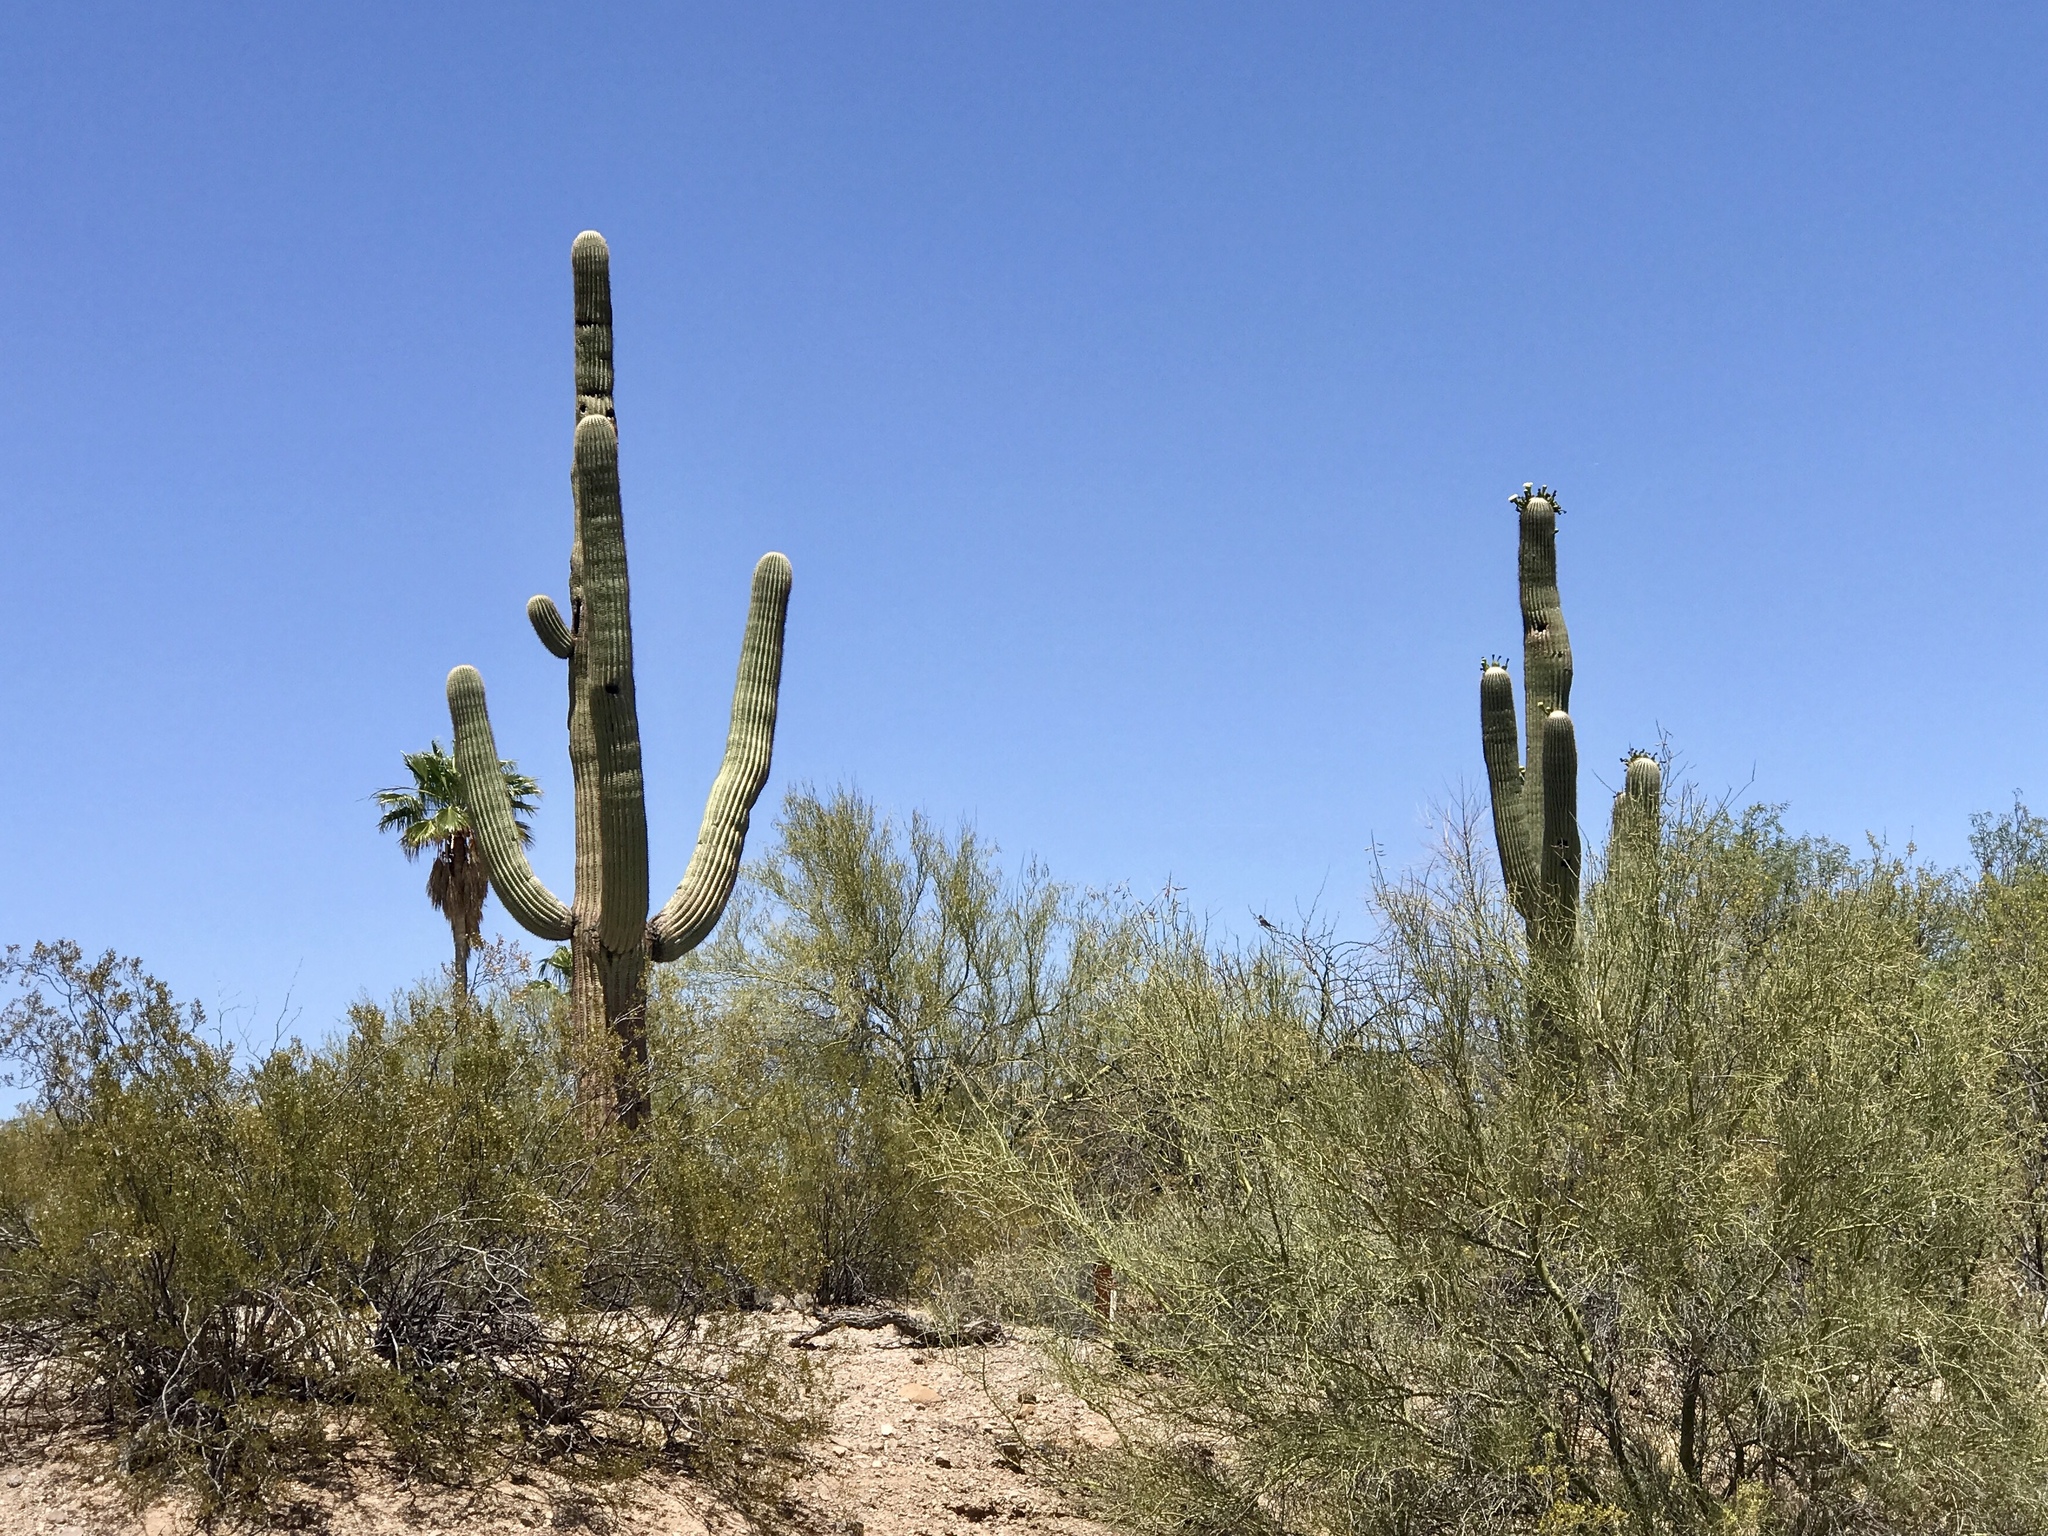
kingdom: Plantae
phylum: Tracheophyta
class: Magnoliopsida
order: Caryophyllales
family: Cactaceae
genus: Carnegiea
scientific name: Carnegiea gigantea
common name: Saguaro
